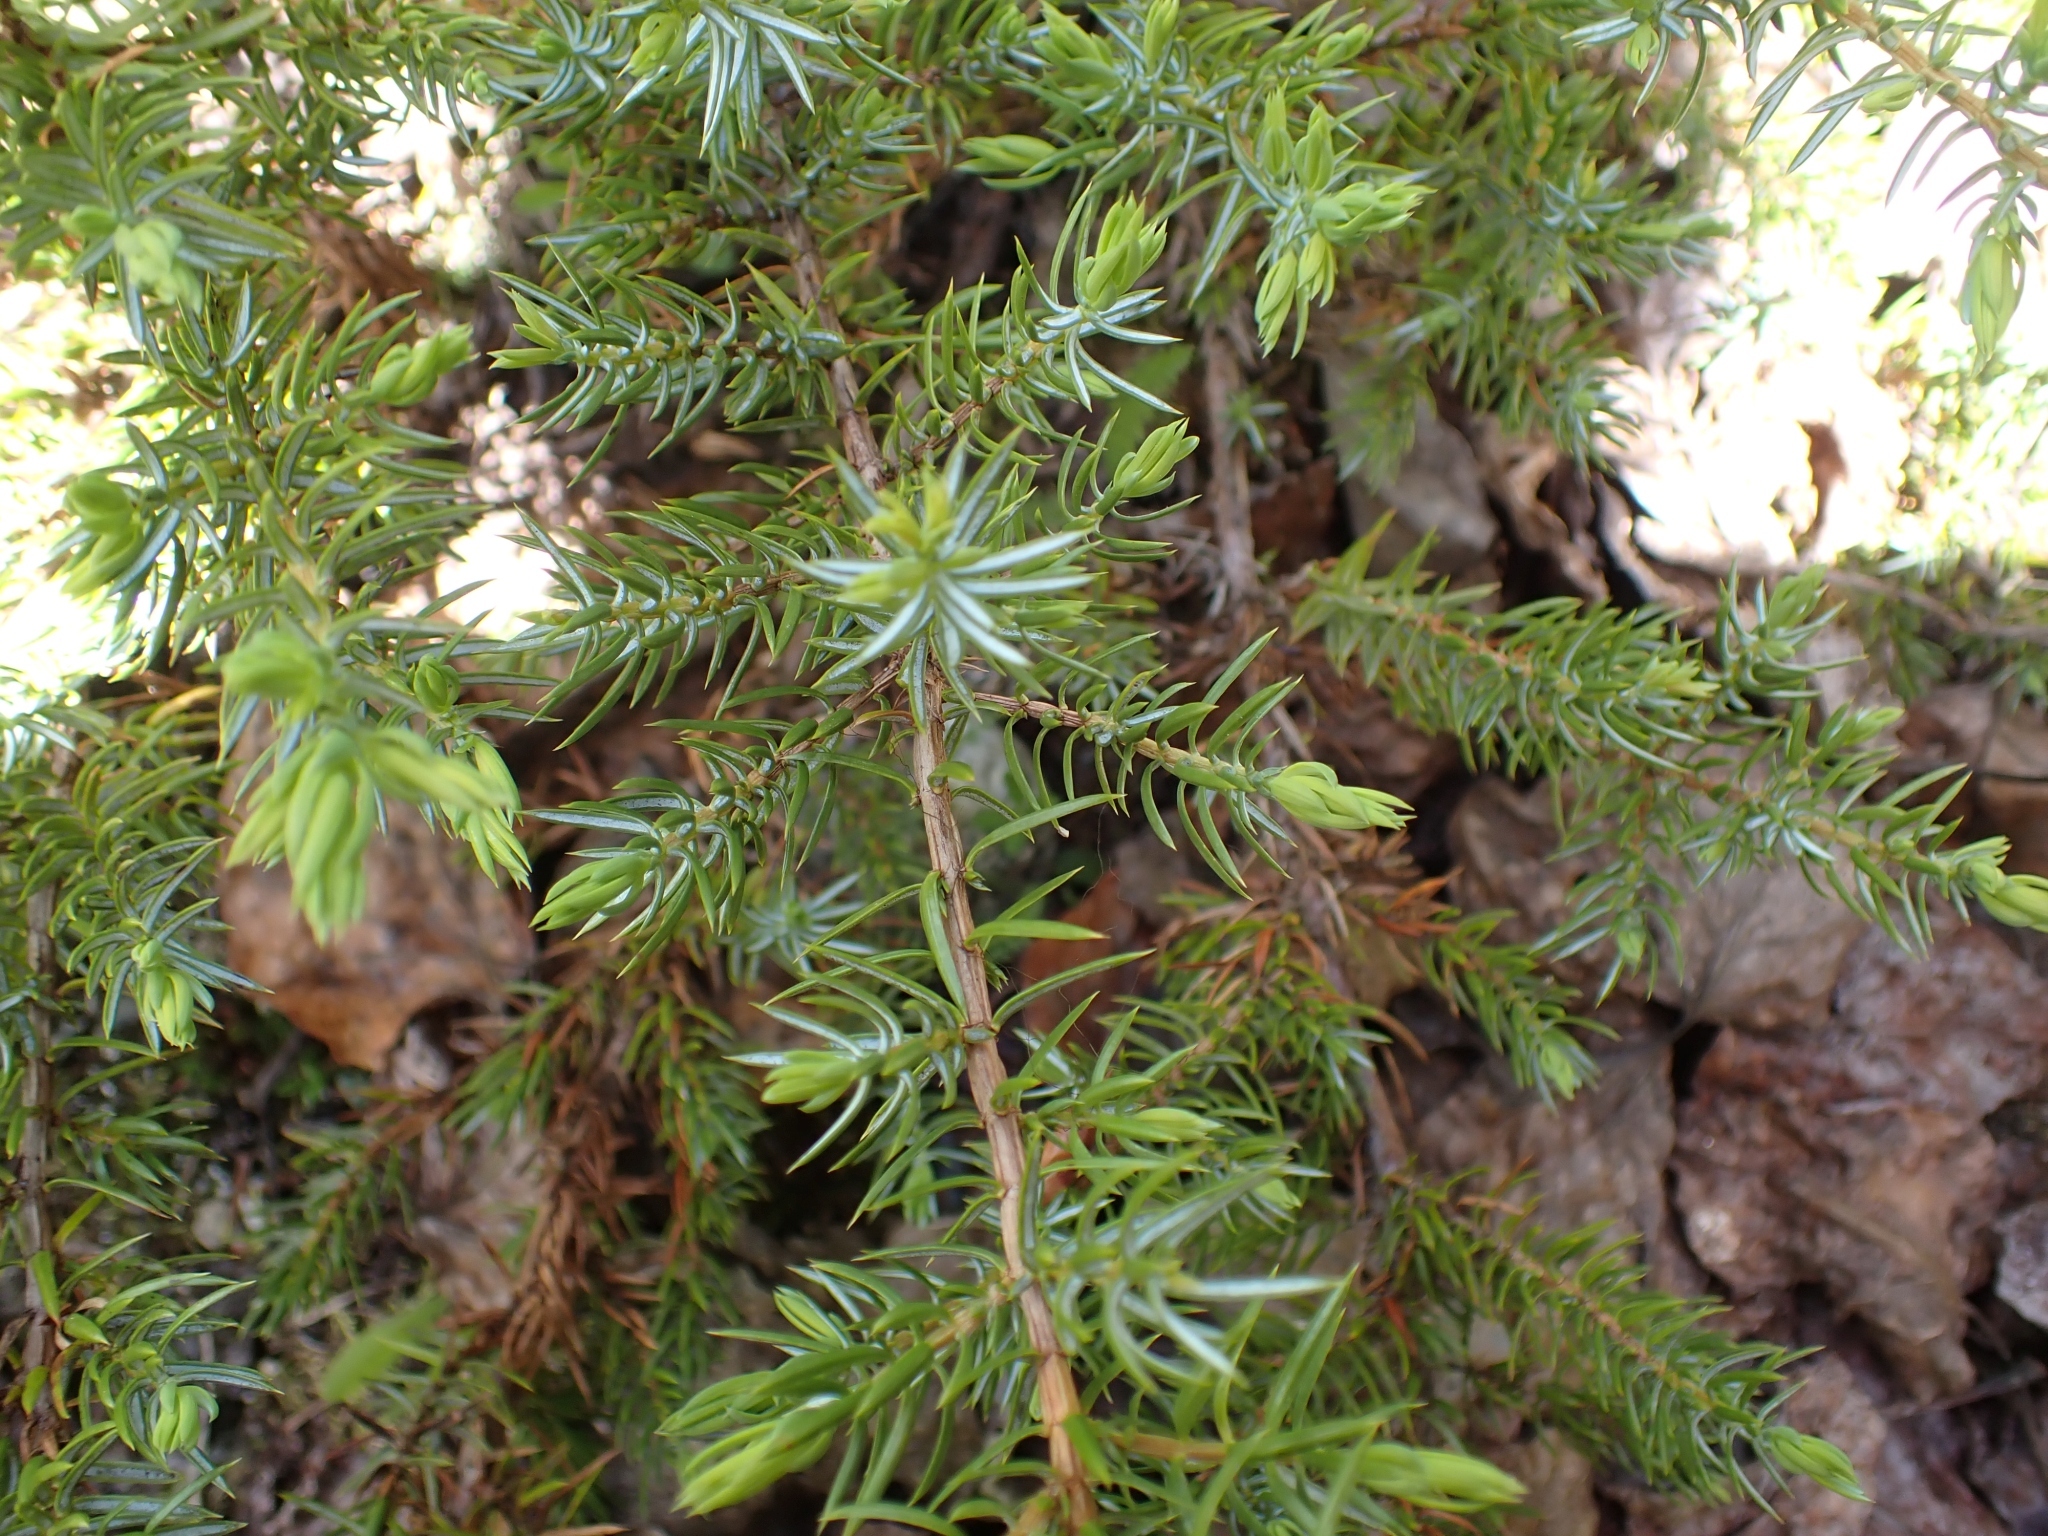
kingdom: Plantae
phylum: Tracheophyta
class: Pinopsida
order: Pinales
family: Cupressaceae
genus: Juniperus
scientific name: Juniperus communis
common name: Common juniper
